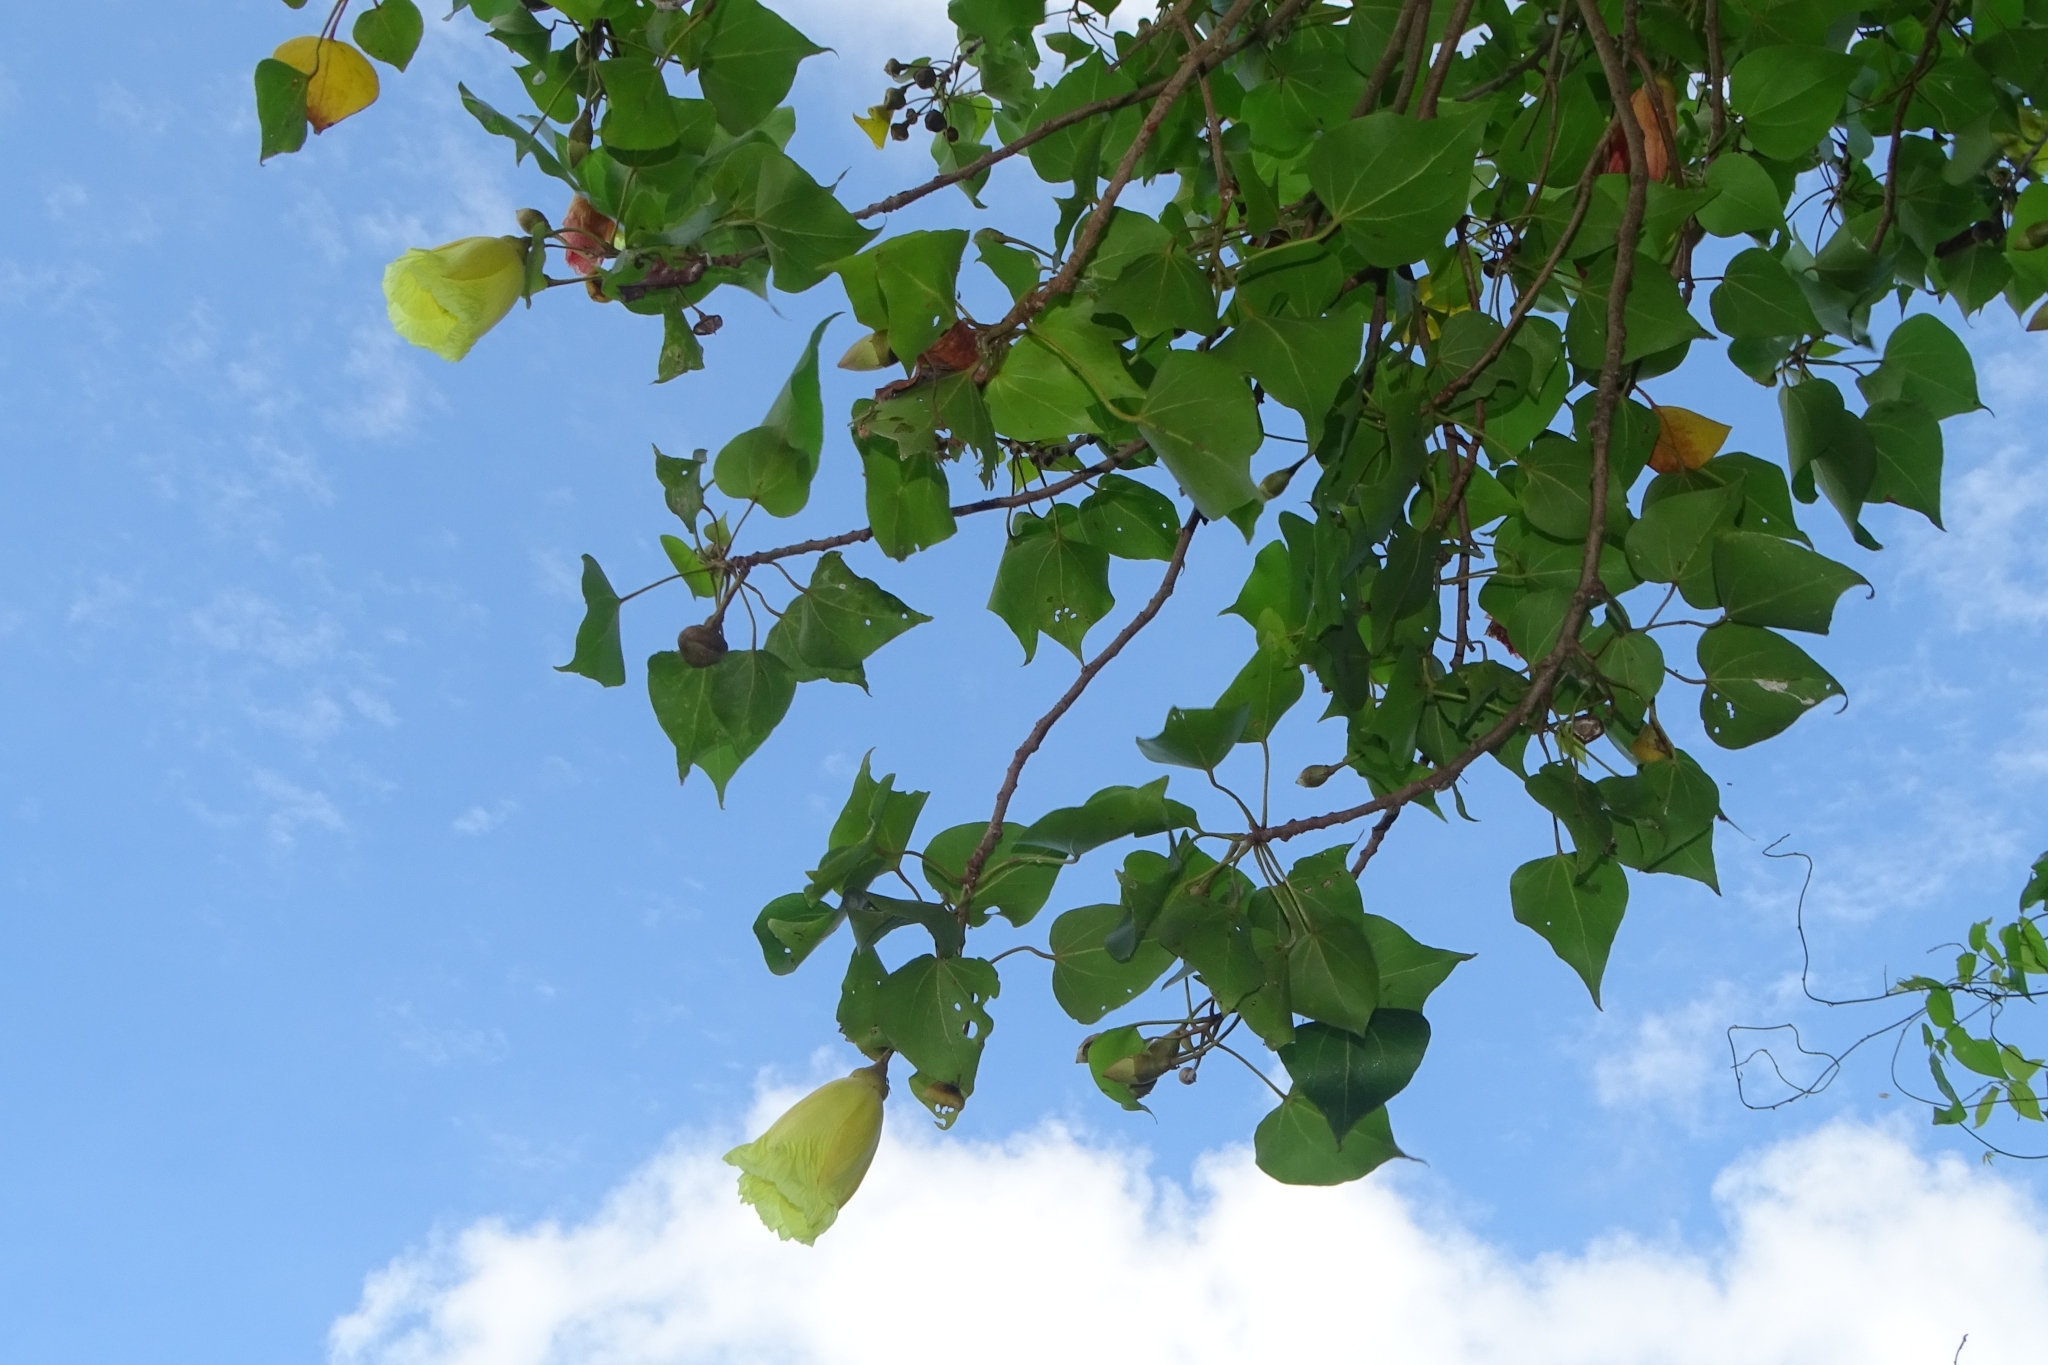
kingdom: Plantae
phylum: Tracheophyta
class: Magnoliopsida
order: Malvales
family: Malvaceae
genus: Thespesia
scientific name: Thespesia populnea
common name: Seaside mahoe
